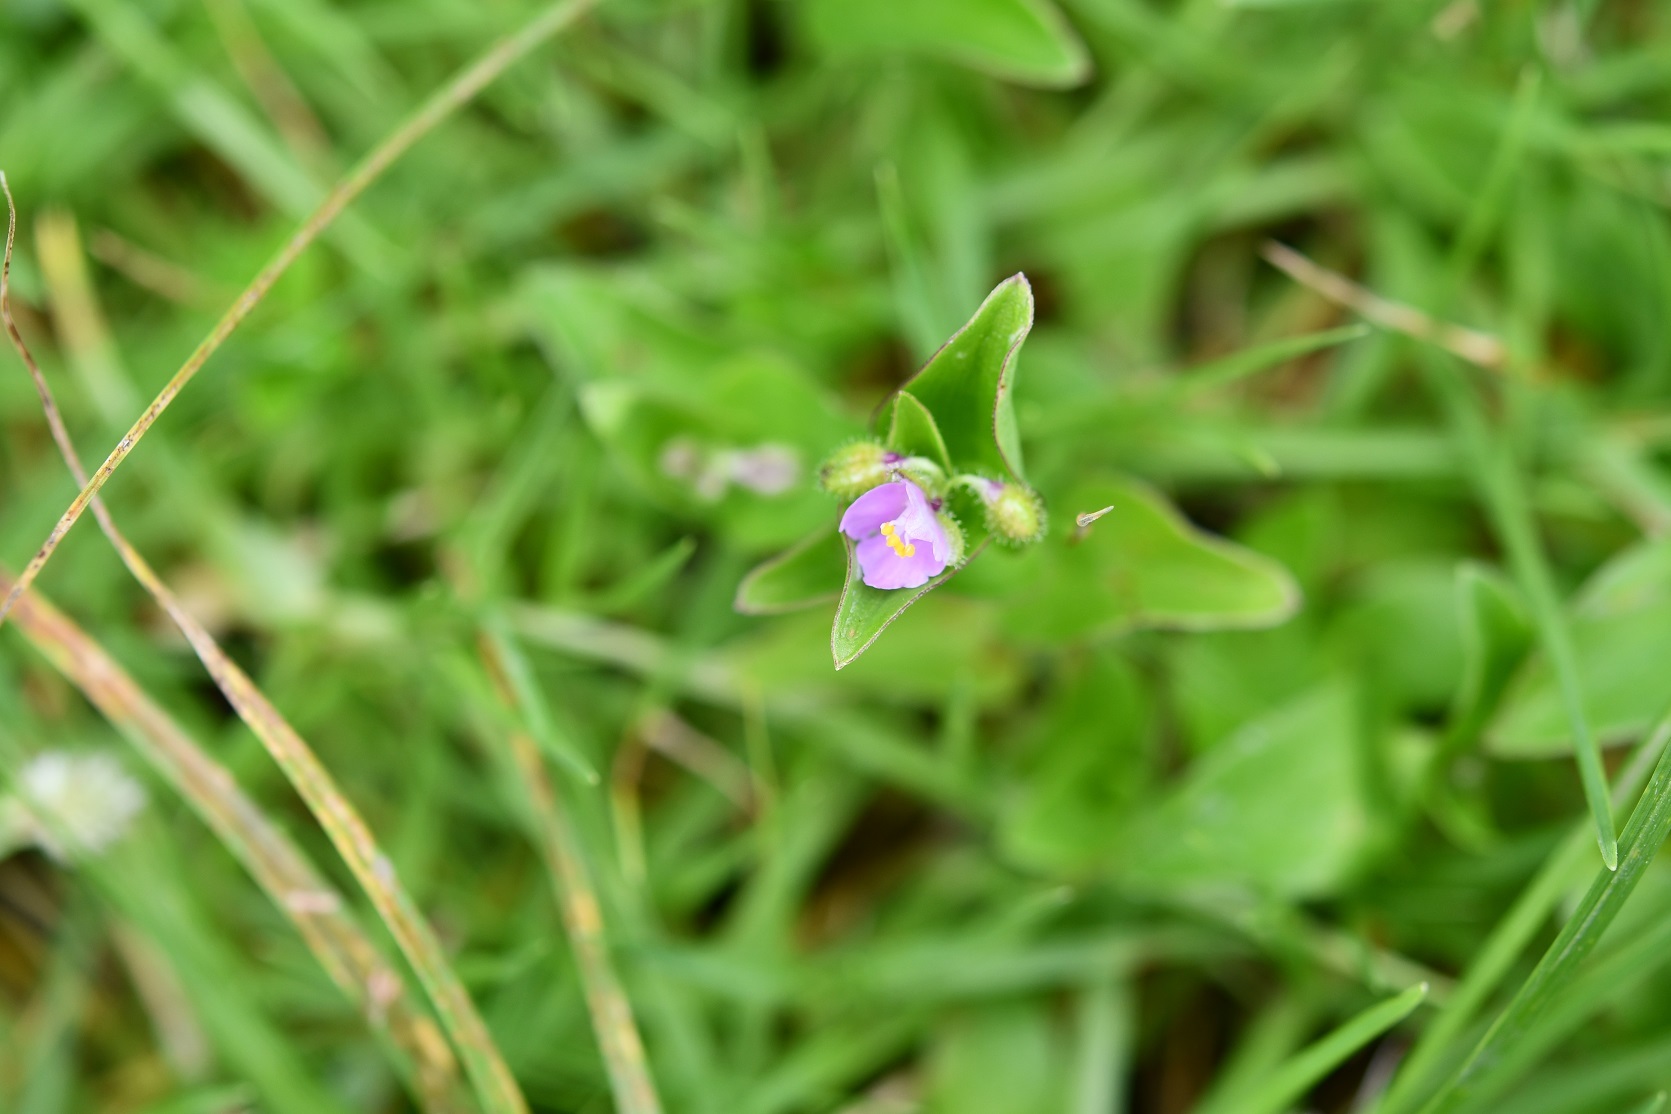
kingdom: Plantae
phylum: Tracheophyta
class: Liliopsida
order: Commelinales
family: Commelinaceae
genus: Callisia
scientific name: Callisia purpurascens
